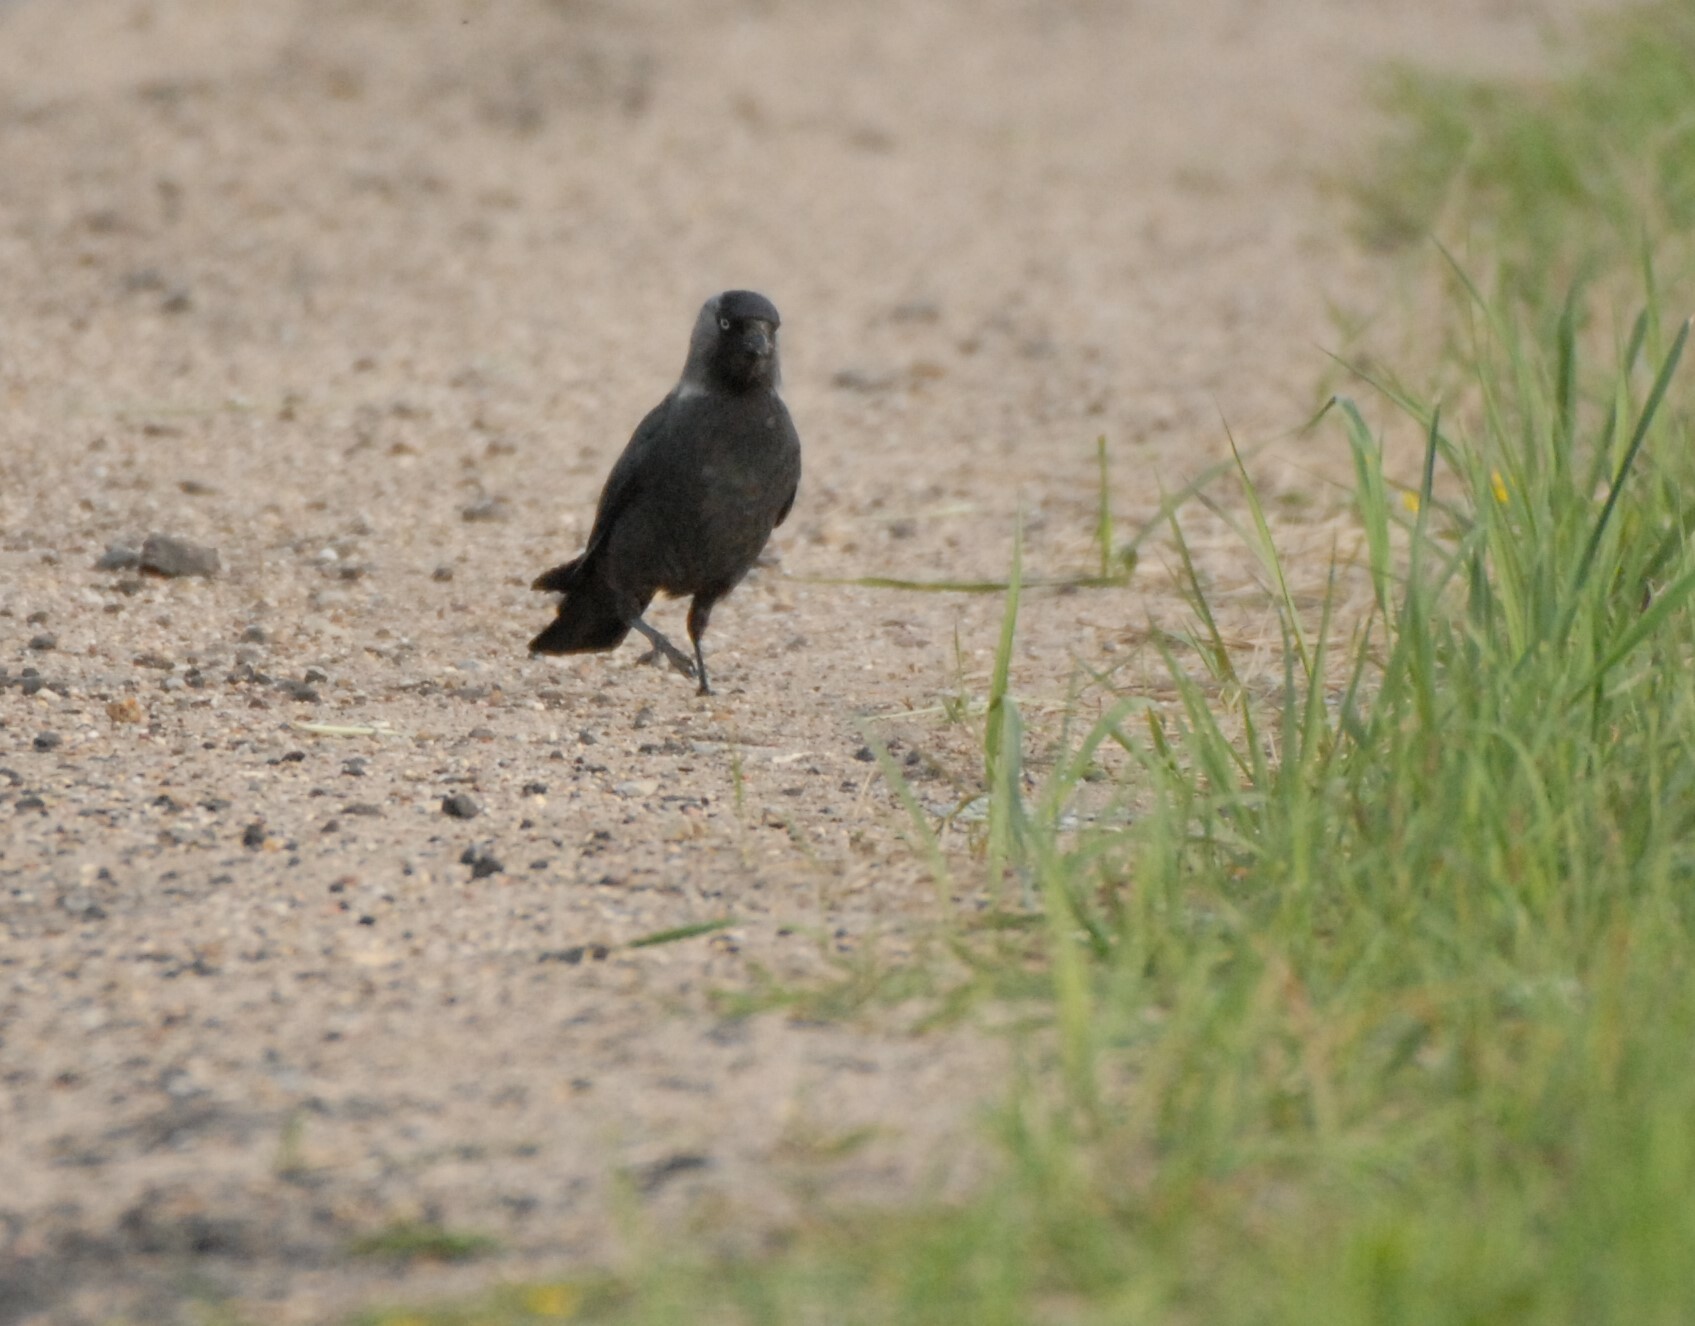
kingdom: Animalia
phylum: Chordata
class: Aves
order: Passeriformes
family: Corvidae
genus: Coloeus
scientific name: Coloeus monedula
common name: Western jackdaw
